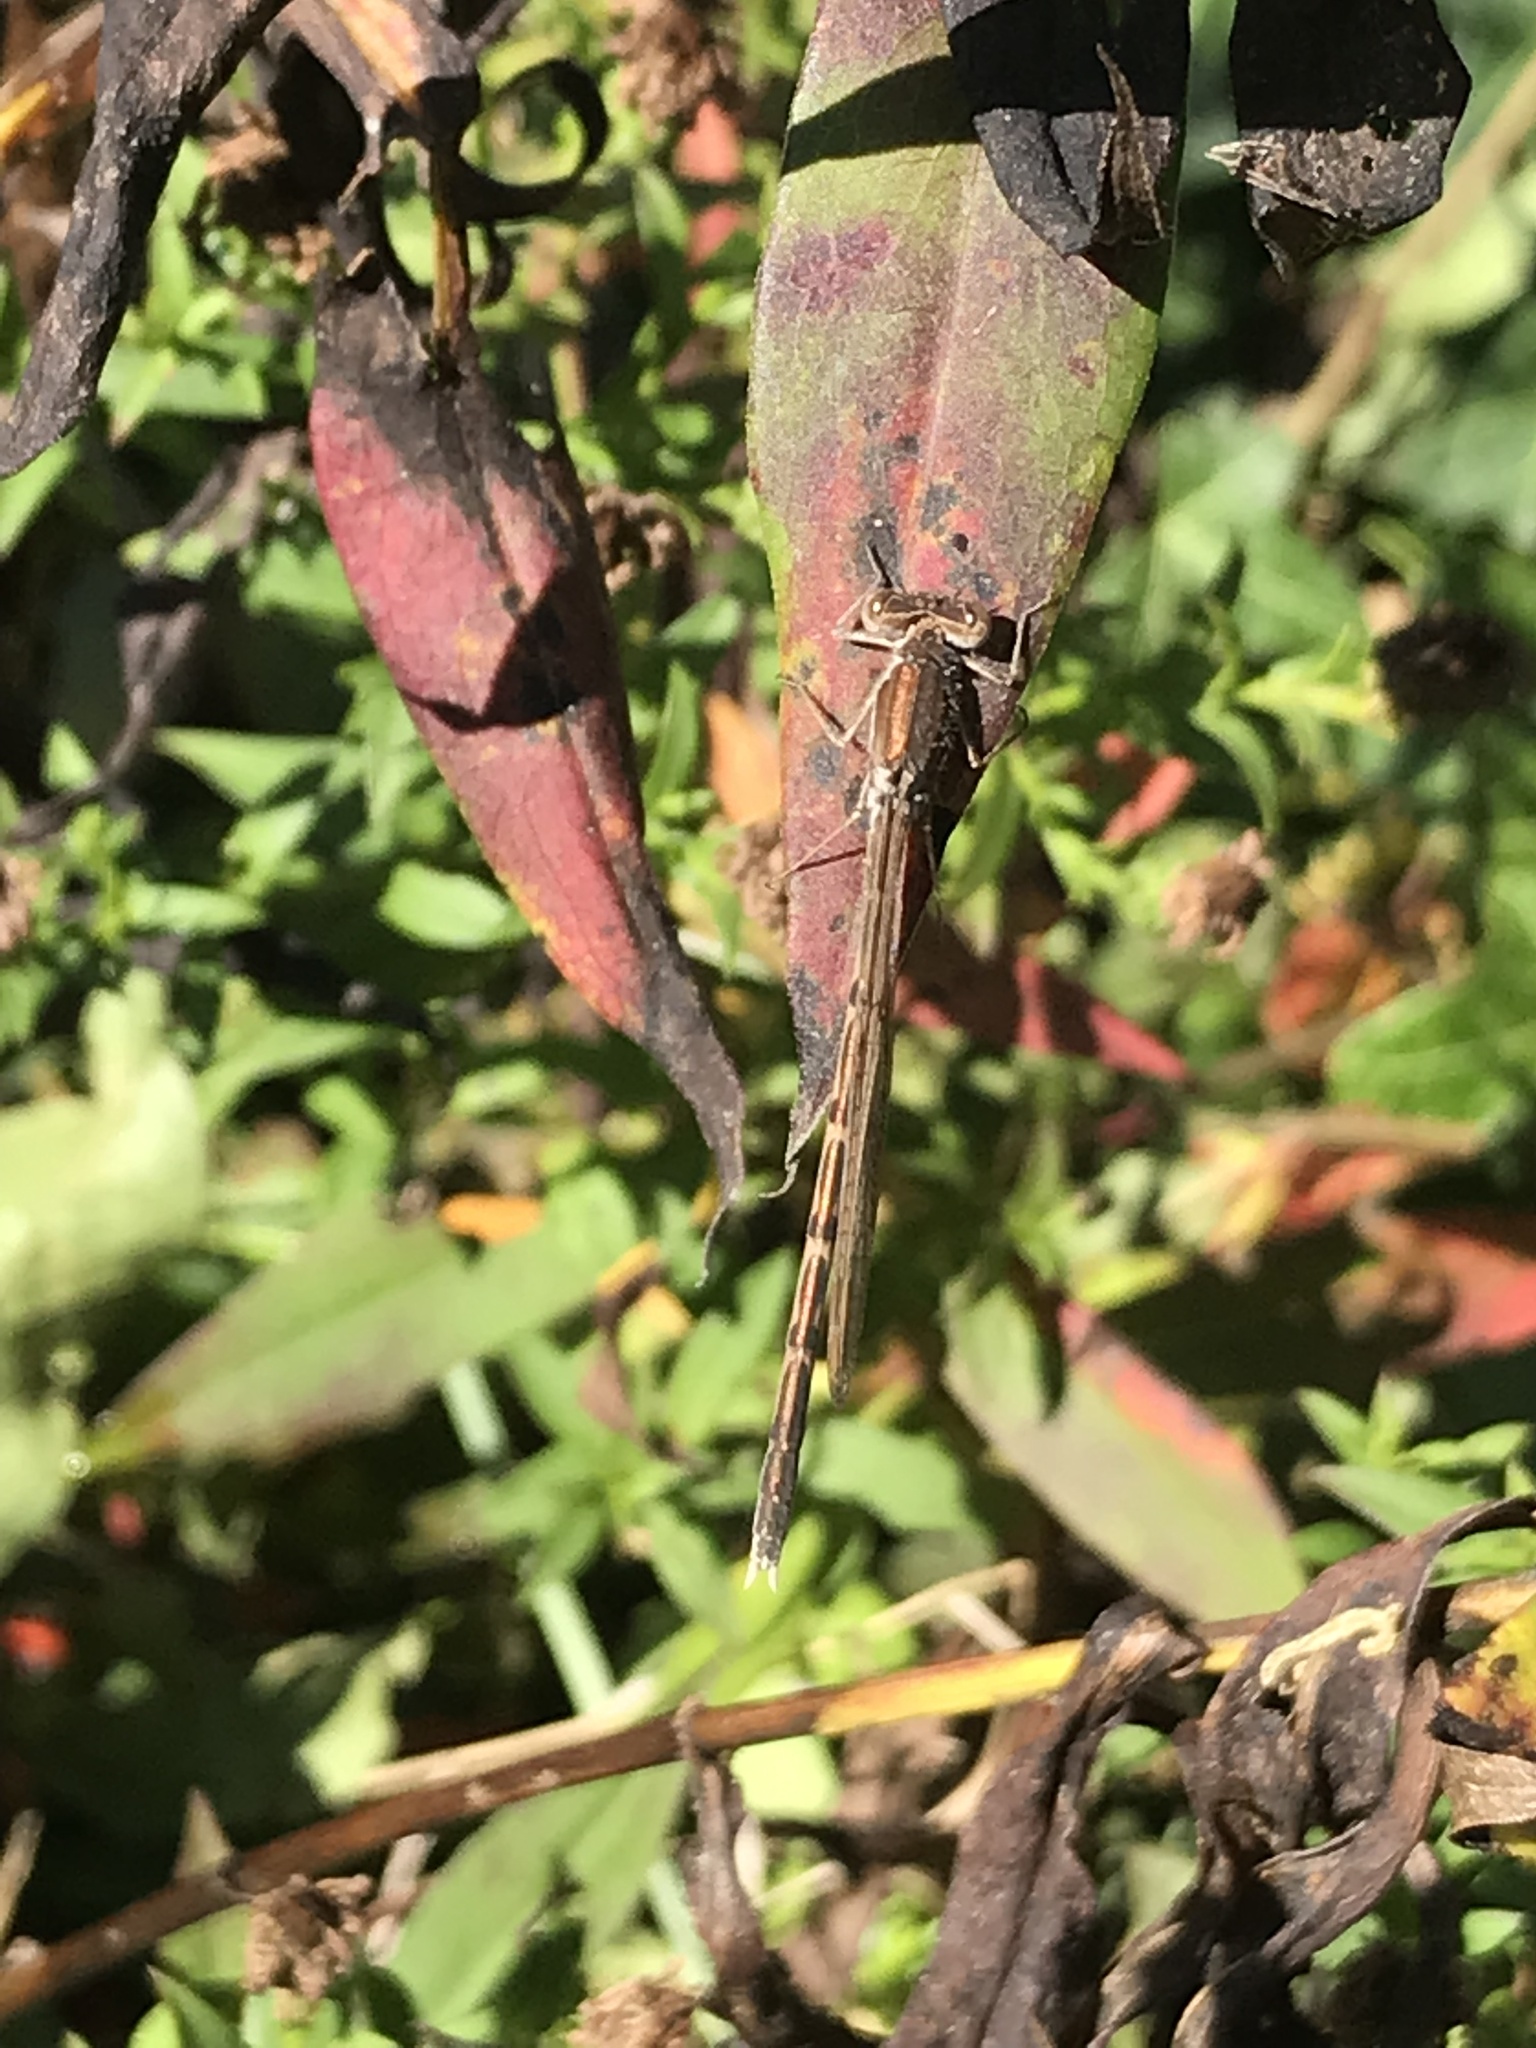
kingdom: Animalia
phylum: Arthropoda
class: Insecta
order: Odonata
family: Lestidae
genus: Sympecma
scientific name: Sympecma fusca
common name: Common winter damsel
